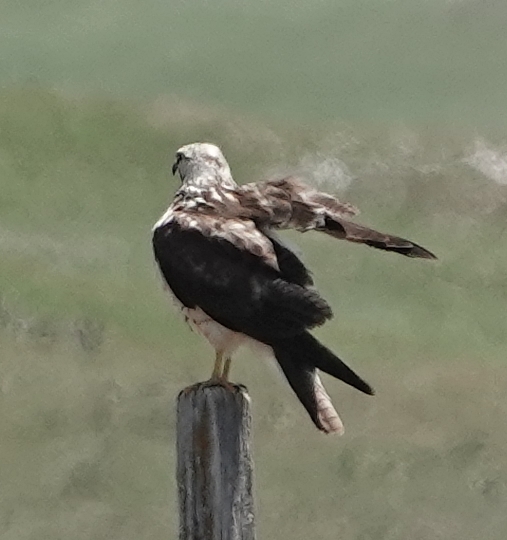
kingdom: Animalia
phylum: Chordata
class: Aves
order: Accipitriformes
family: Accipitridae
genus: Buteo
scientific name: Buteo swainsoni
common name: Swainson's hawk
